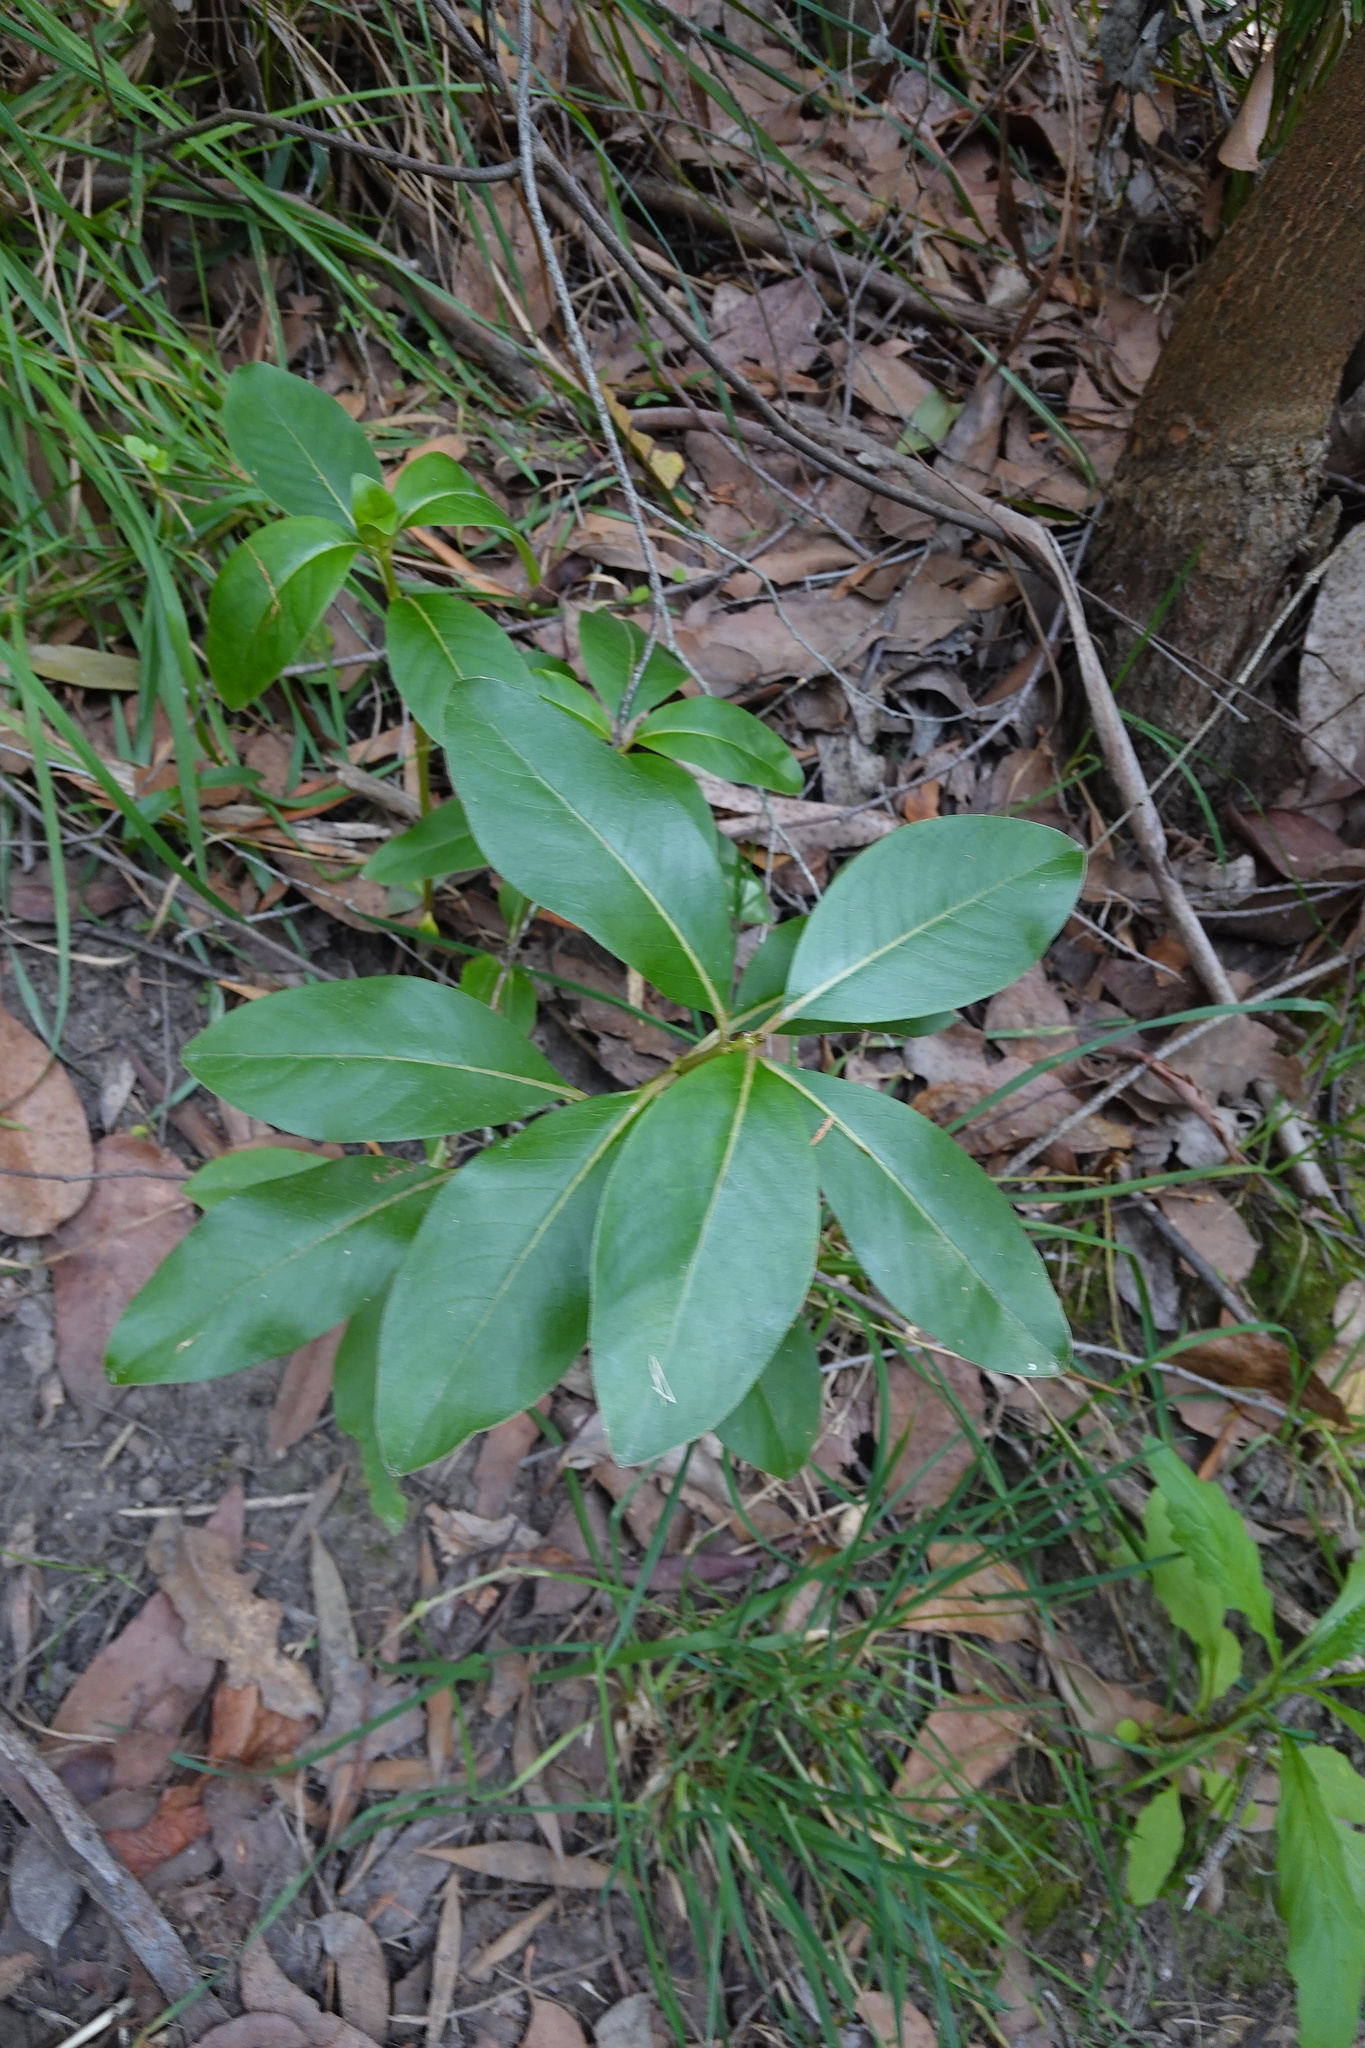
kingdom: Plantae
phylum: Tracheophyta
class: Magnoliopsida
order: Gentianales
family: Rubiaceae
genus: Coprosma
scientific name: Coprosma robusta
